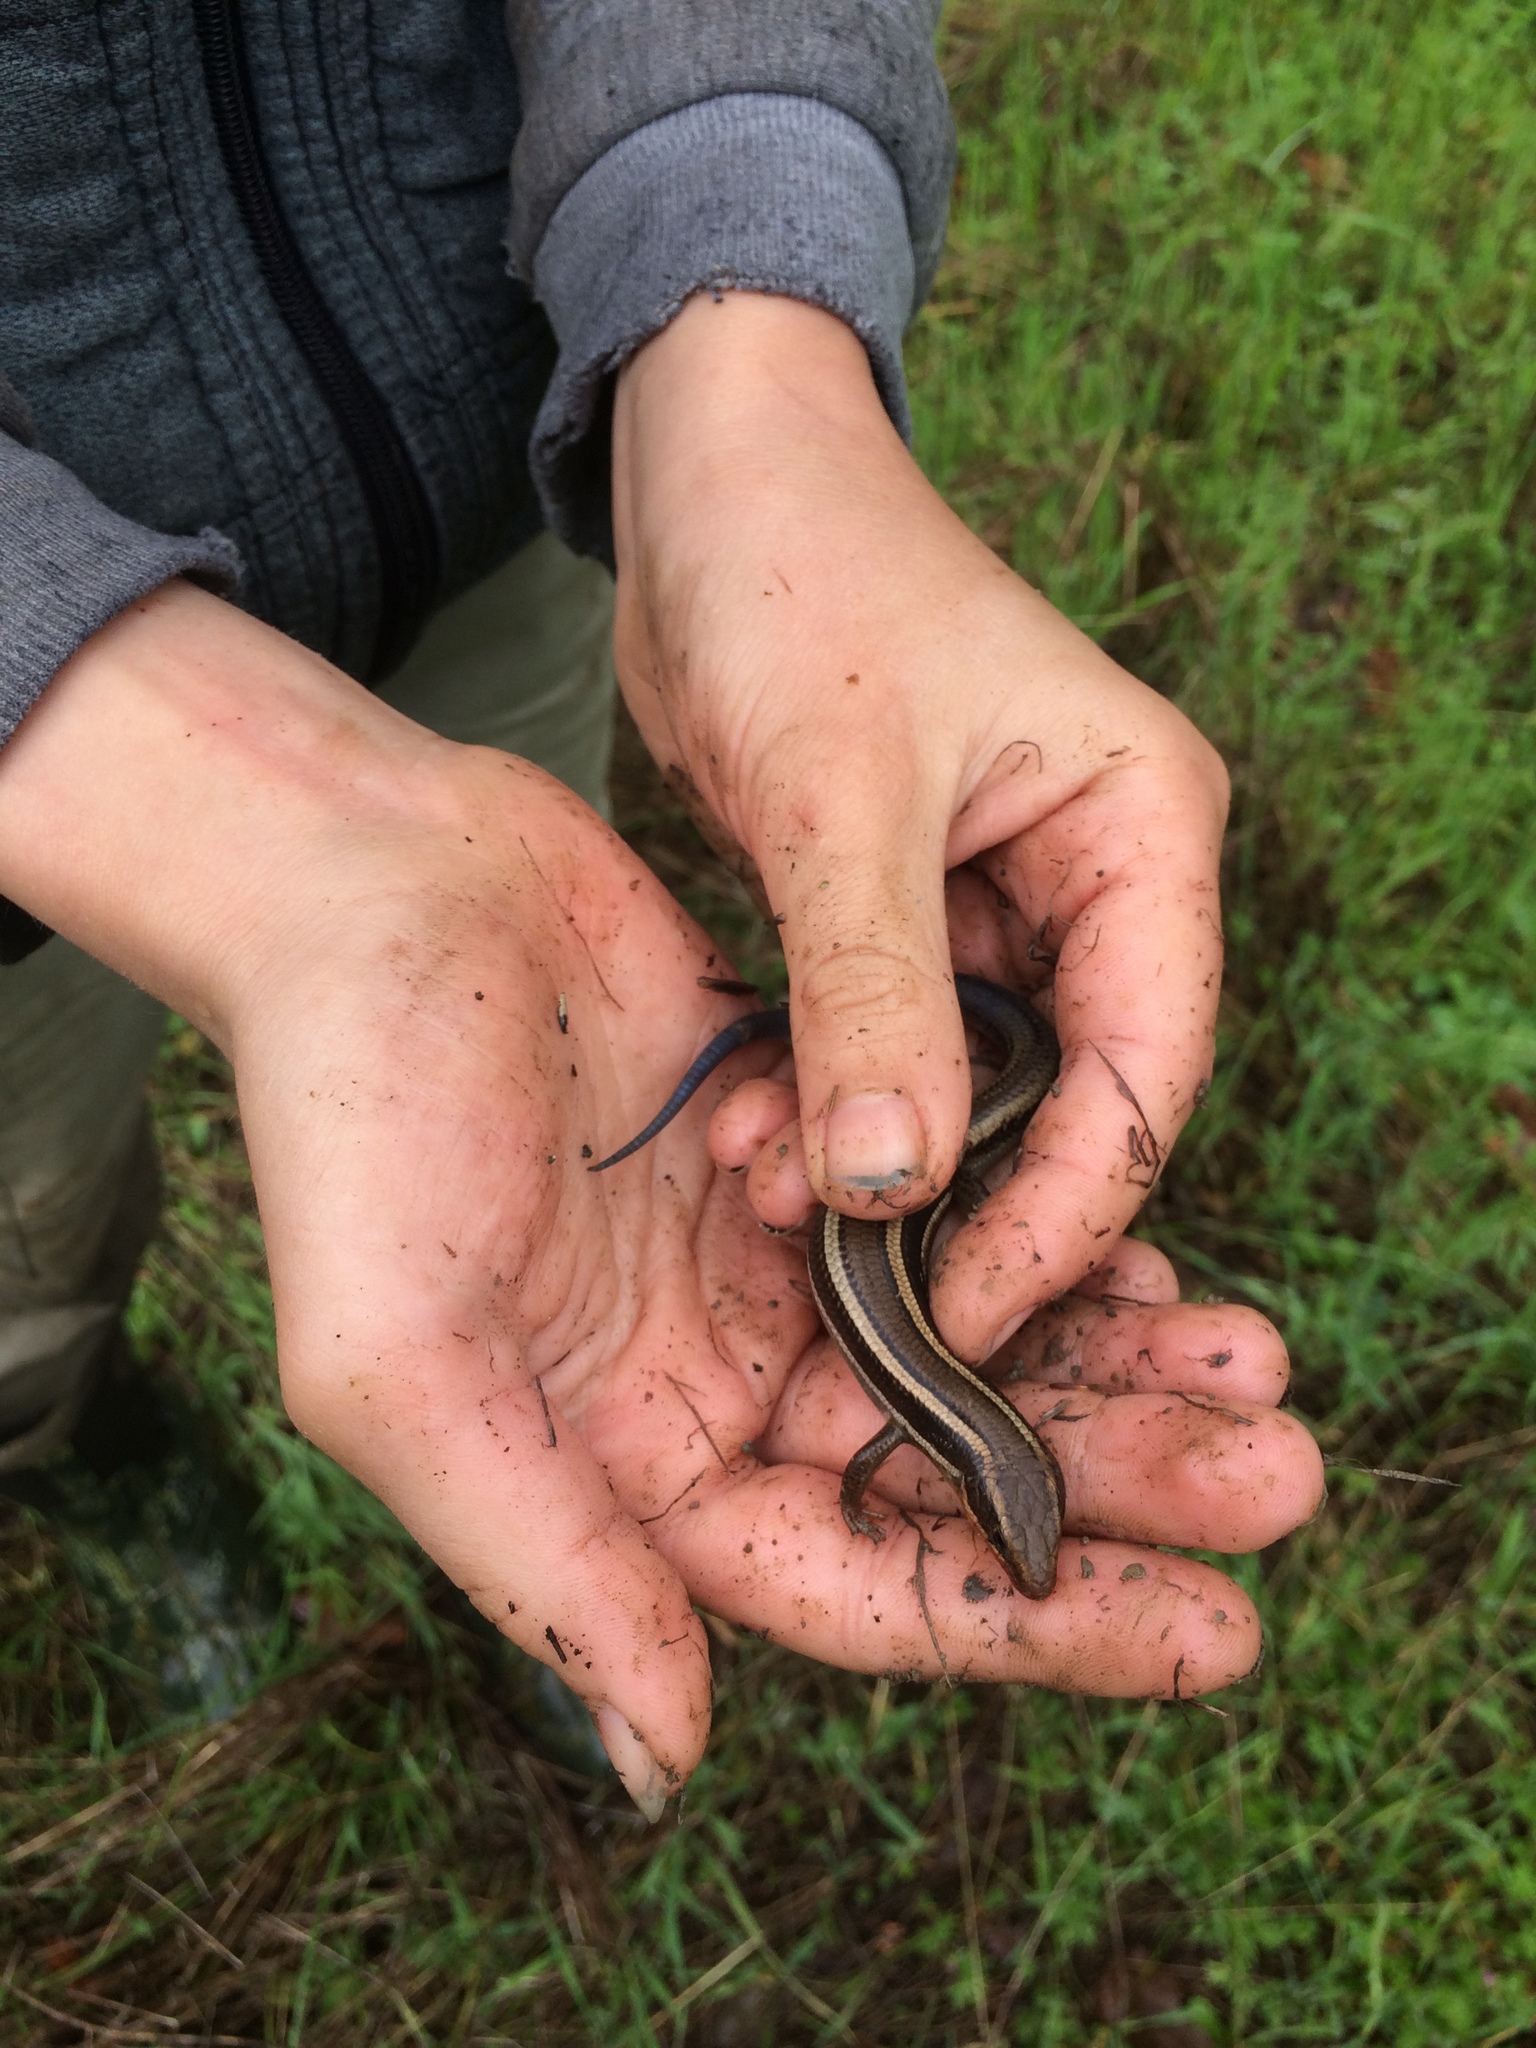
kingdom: Animalia
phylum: Chordata
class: Squamata
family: Scincidae
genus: Plestiodon
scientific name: Plestiodon skiltonianus
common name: Coronado island skink [interparietalis]
